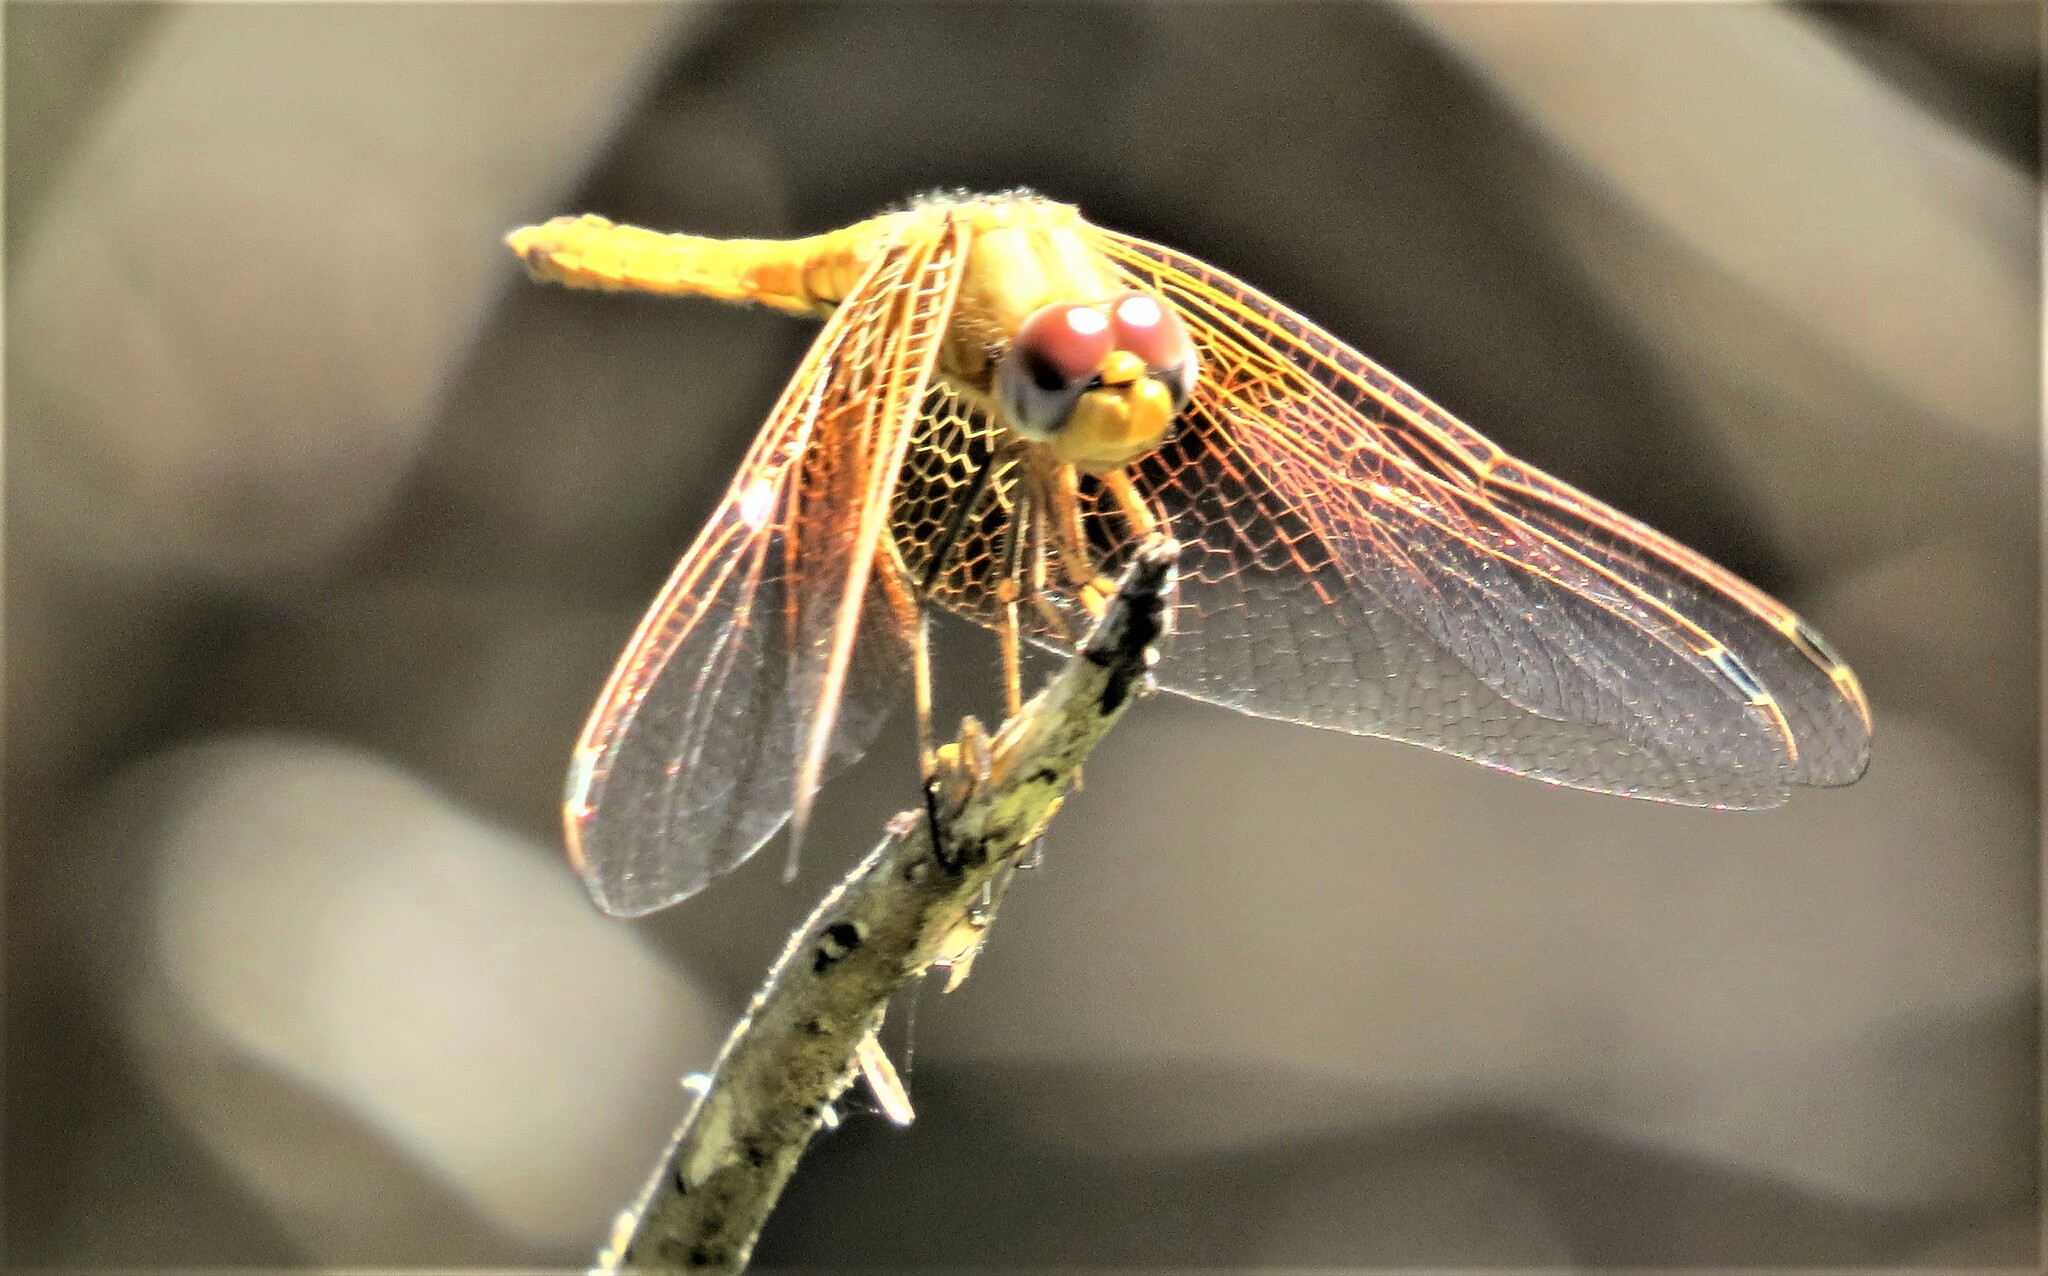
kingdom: Animalia
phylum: Arthropoda
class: Insecta
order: Odonata
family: Libellulidae
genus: Trithemis
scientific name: Trithemis kirbyi
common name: Kirby's dropwing
